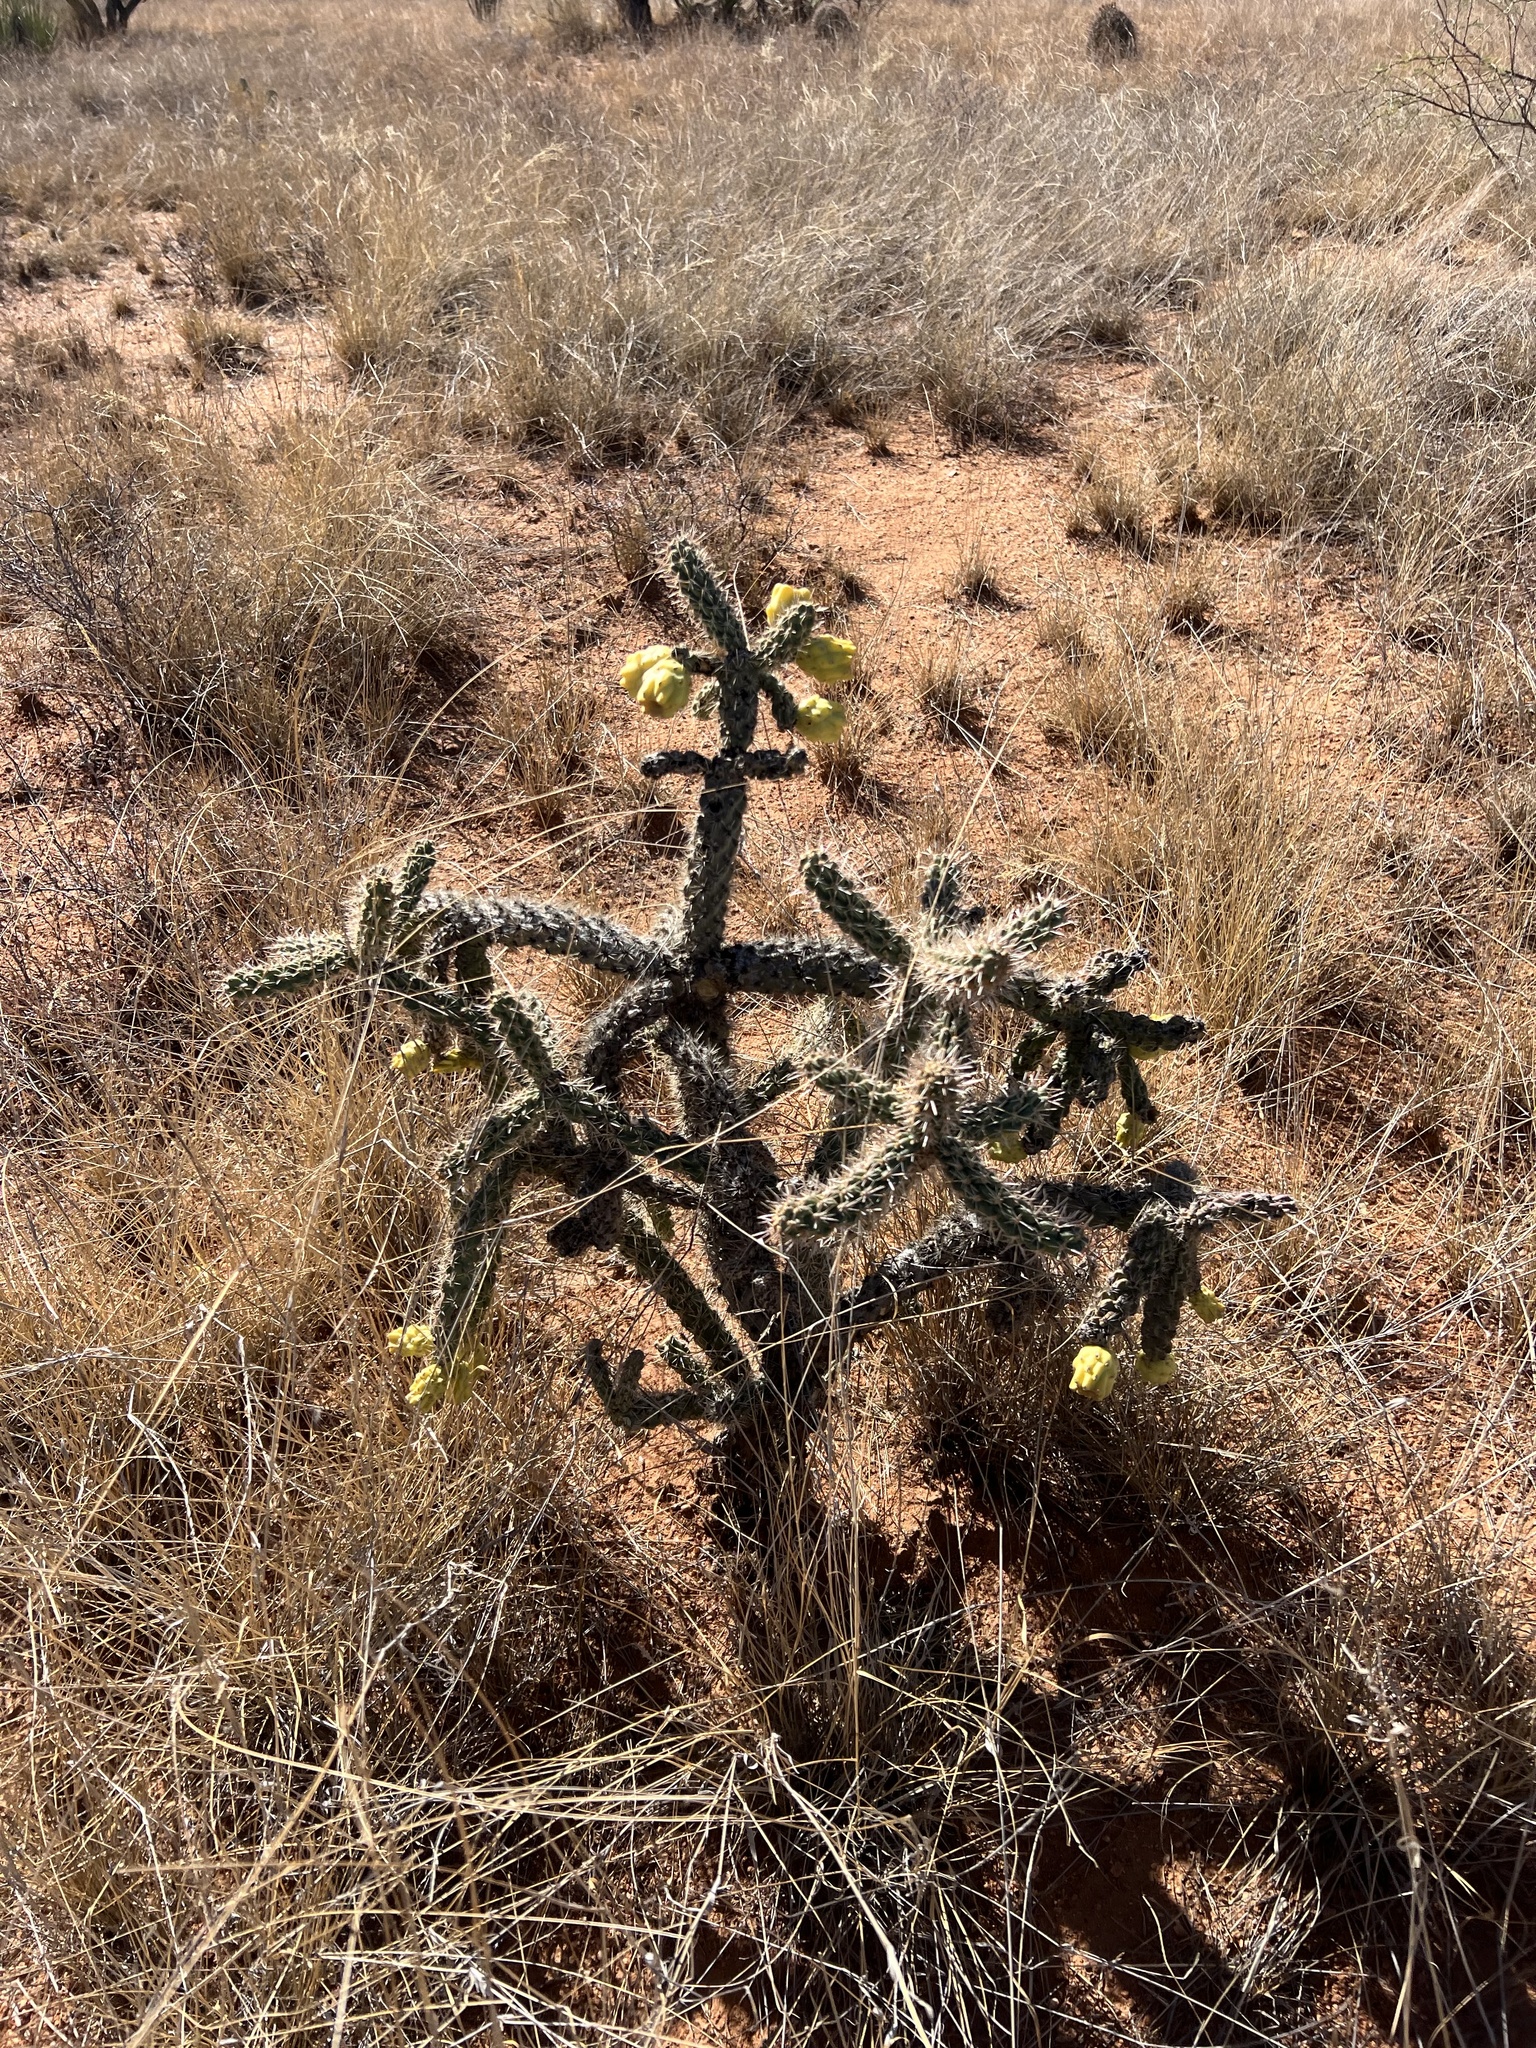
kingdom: Plantae
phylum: Tracheophyta
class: Magnoliopsida
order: Caryophyllales
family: Cactaceae
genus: Cylindropuntia
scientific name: Cylindropuntia imbricata
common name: Candelabrum cactus
